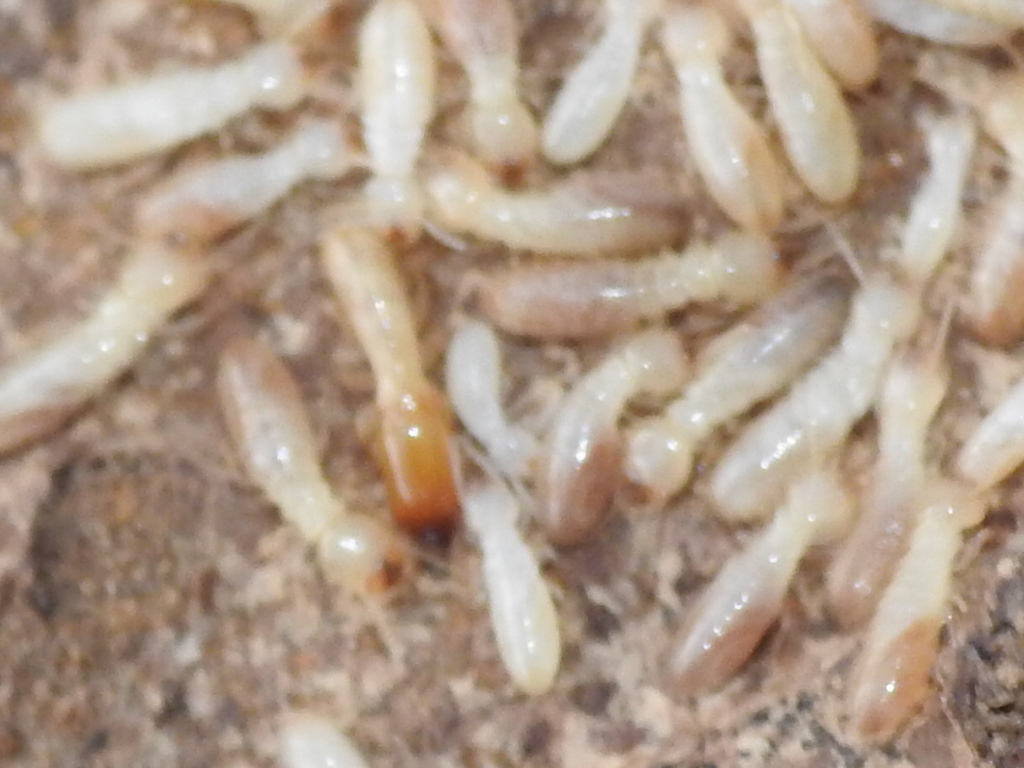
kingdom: Animalia
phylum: Arthropoda
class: Insecta
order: Blattodea
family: Rhinotermitidae
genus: Reticulitermes
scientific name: Reticulitermes flavipes
